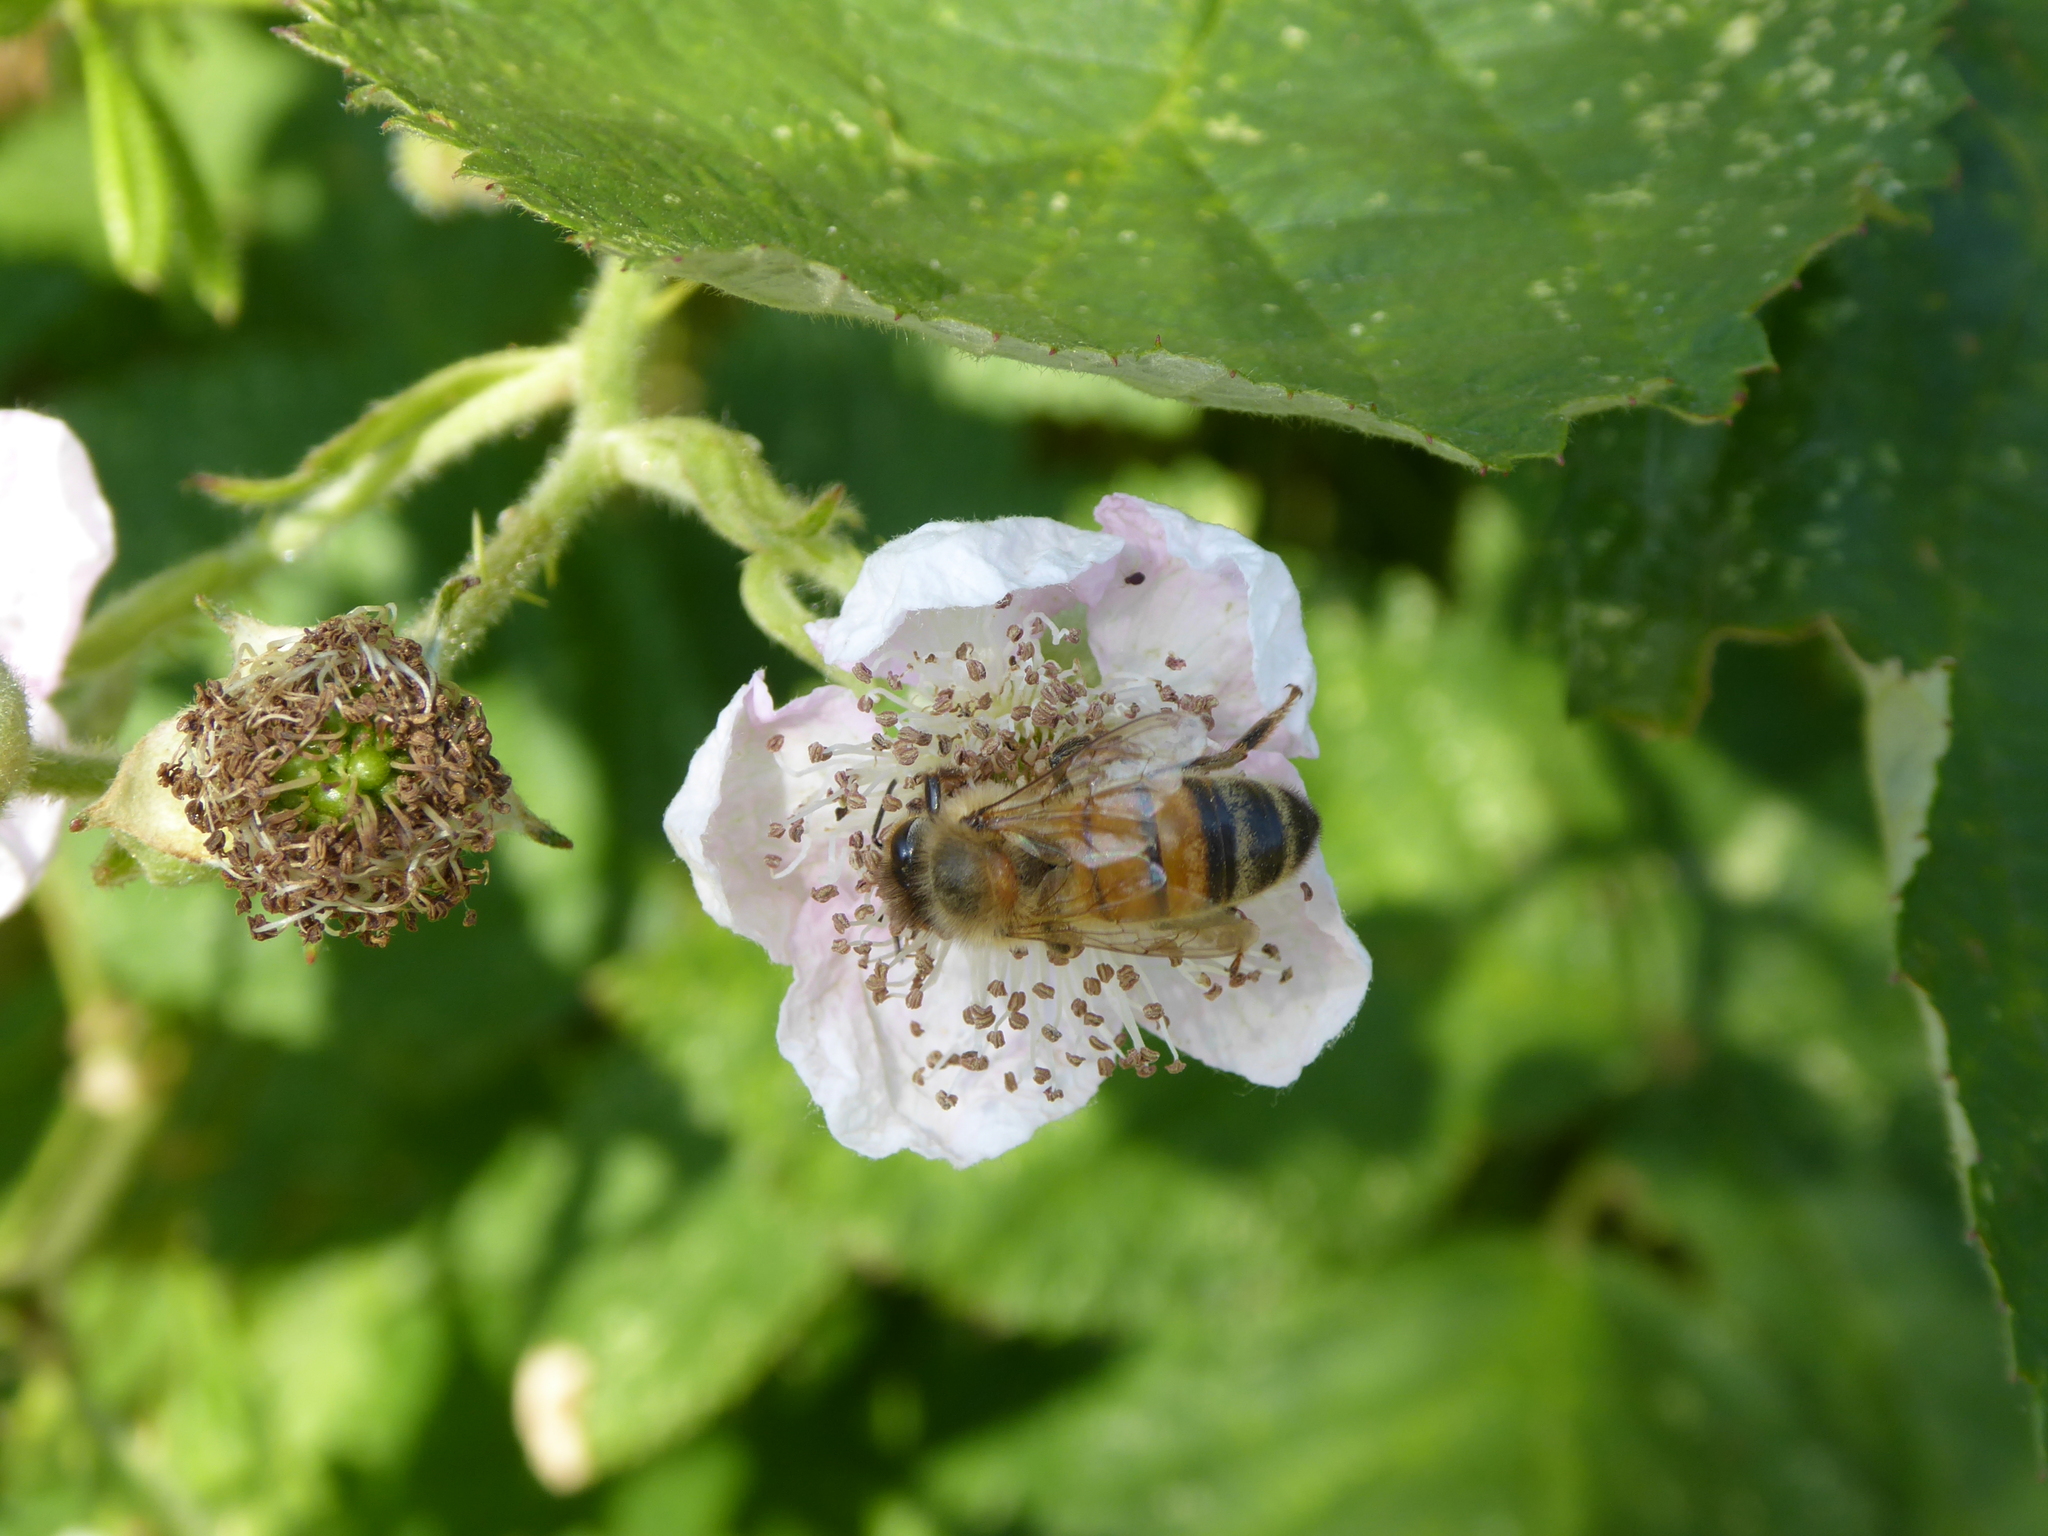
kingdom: Animalia
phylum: Arthropoda
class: Insecta
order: Hymenoptera
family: Apidae
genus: Apis
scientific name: Apis mellifera
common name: Honey bee
